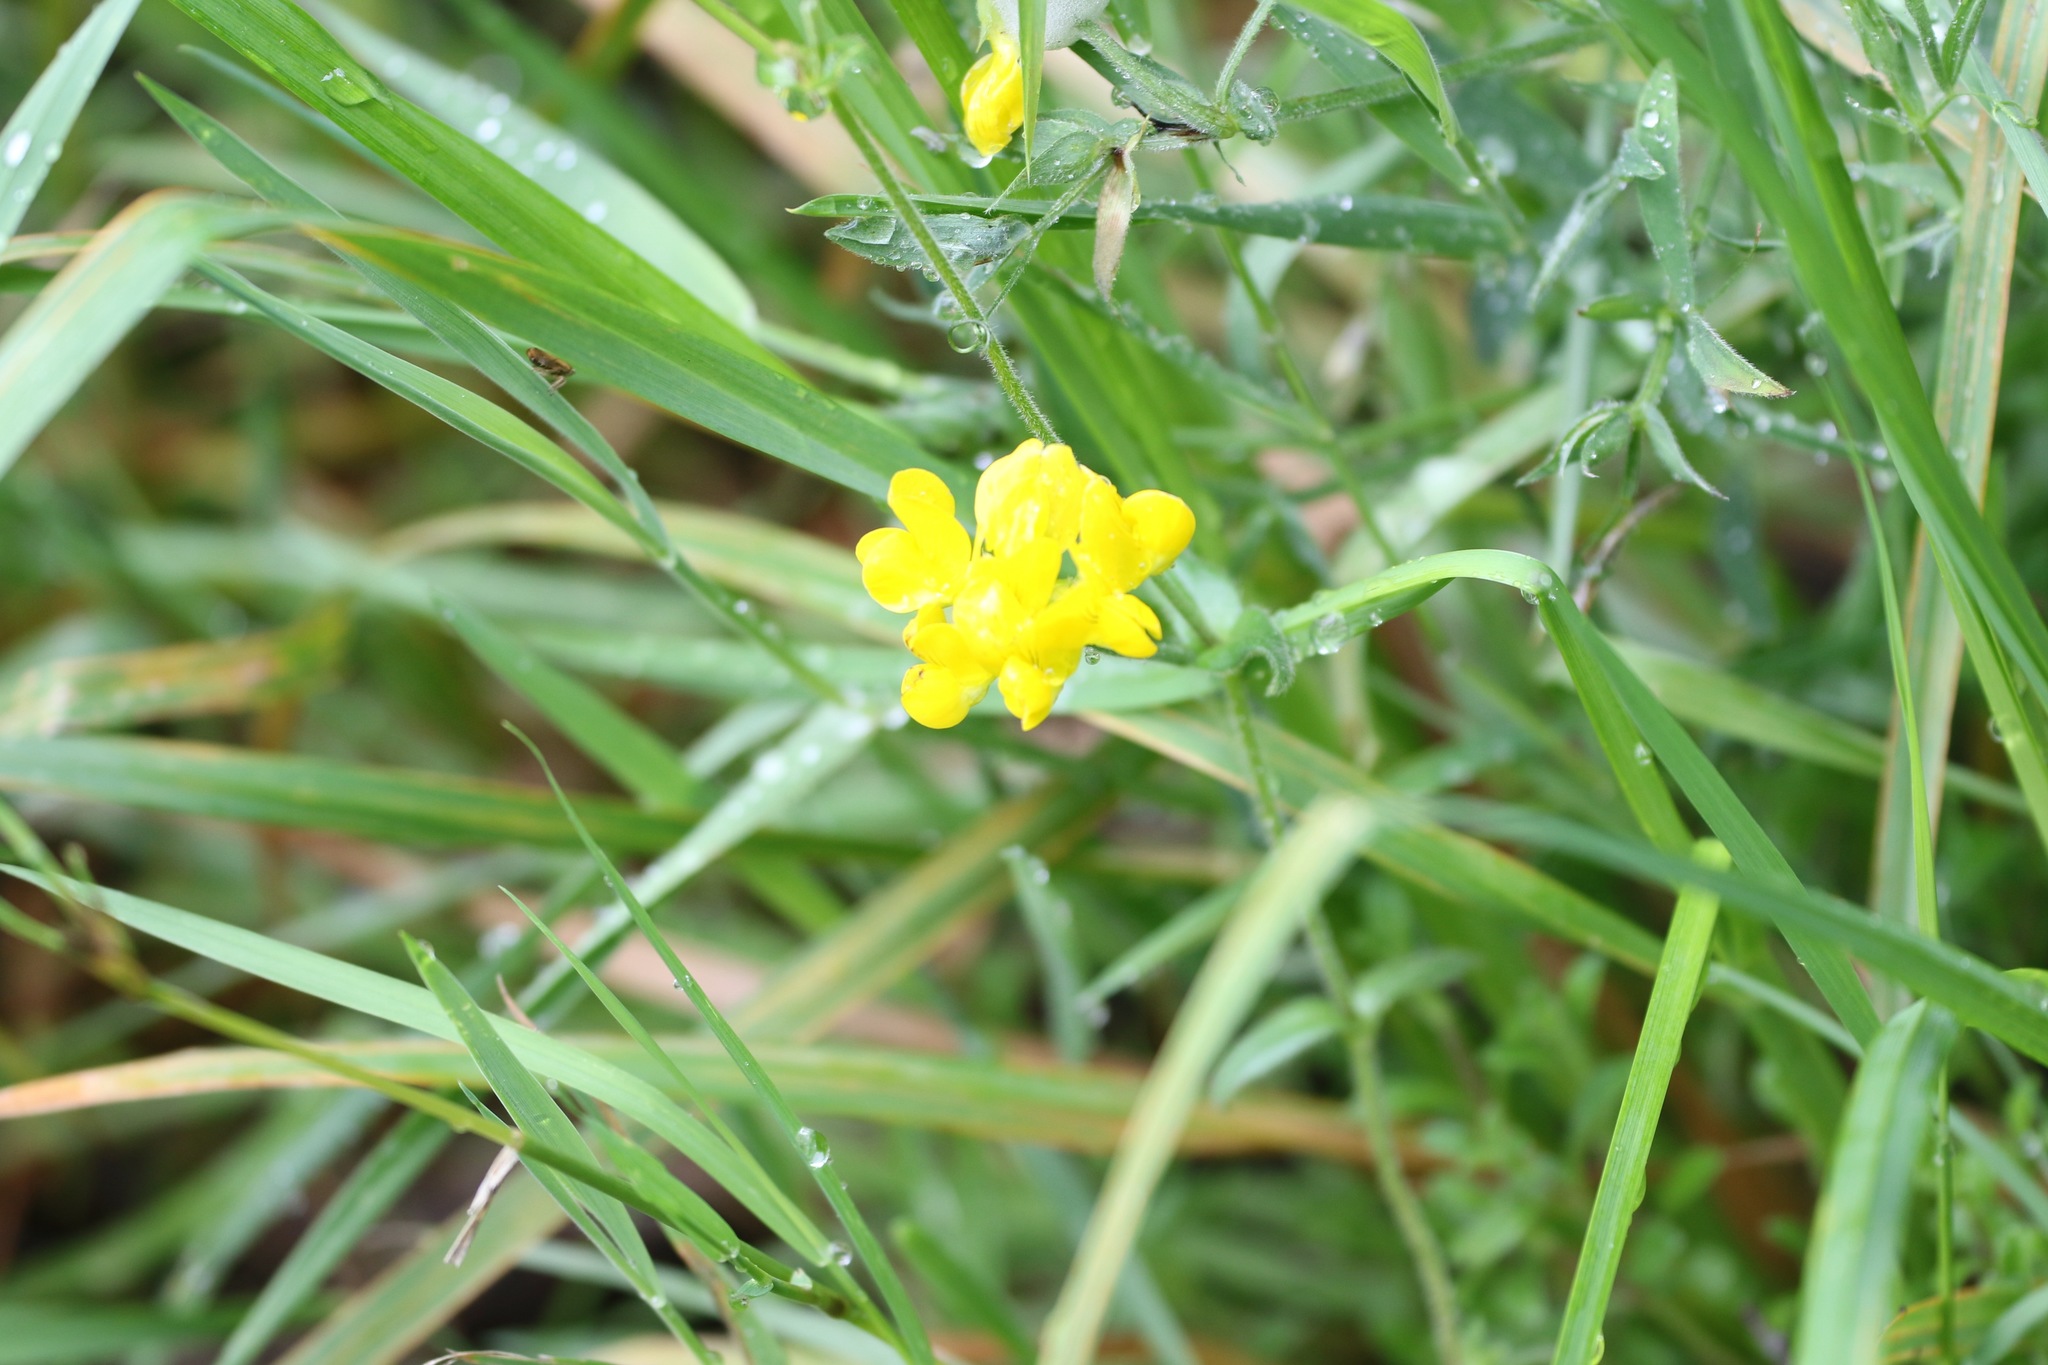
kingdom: Plantae
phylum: Tracheophyta
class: Magnoliopsida
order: Fabales
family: Fabaceae
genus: Lathyrus
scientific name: Lathyrus pratensis
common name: Meadow vetchling
